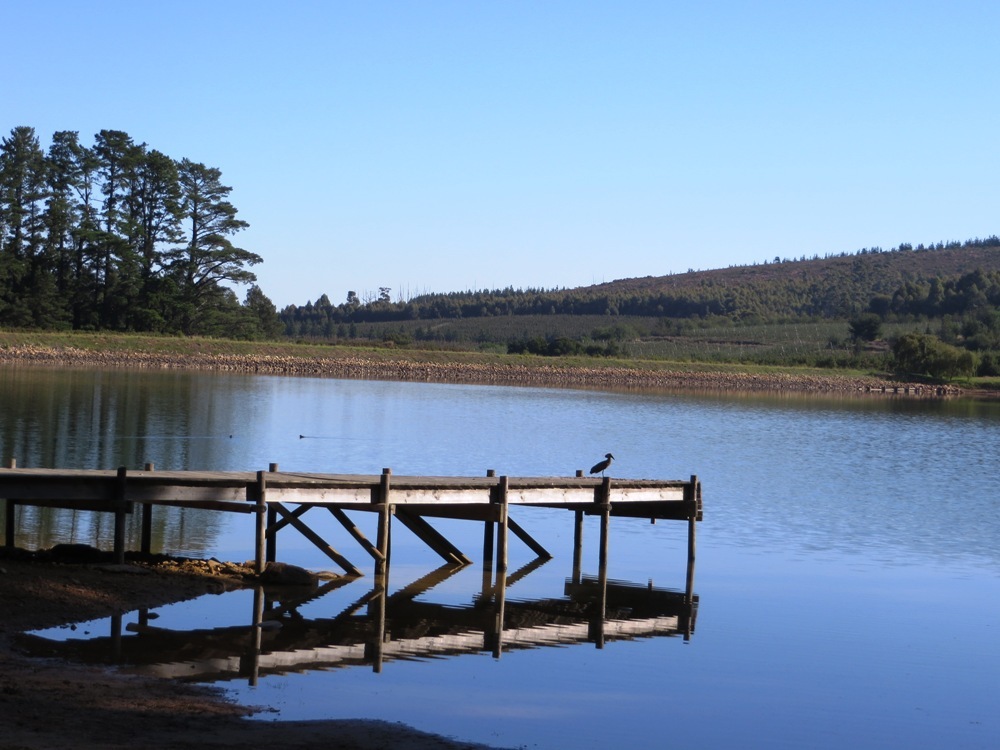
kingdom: Animalia
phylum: Chordata
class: Aves
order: Pelecaniformes
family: Scopidae
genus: Scopus
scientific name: Scopus umbretta
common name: Hamerkop
